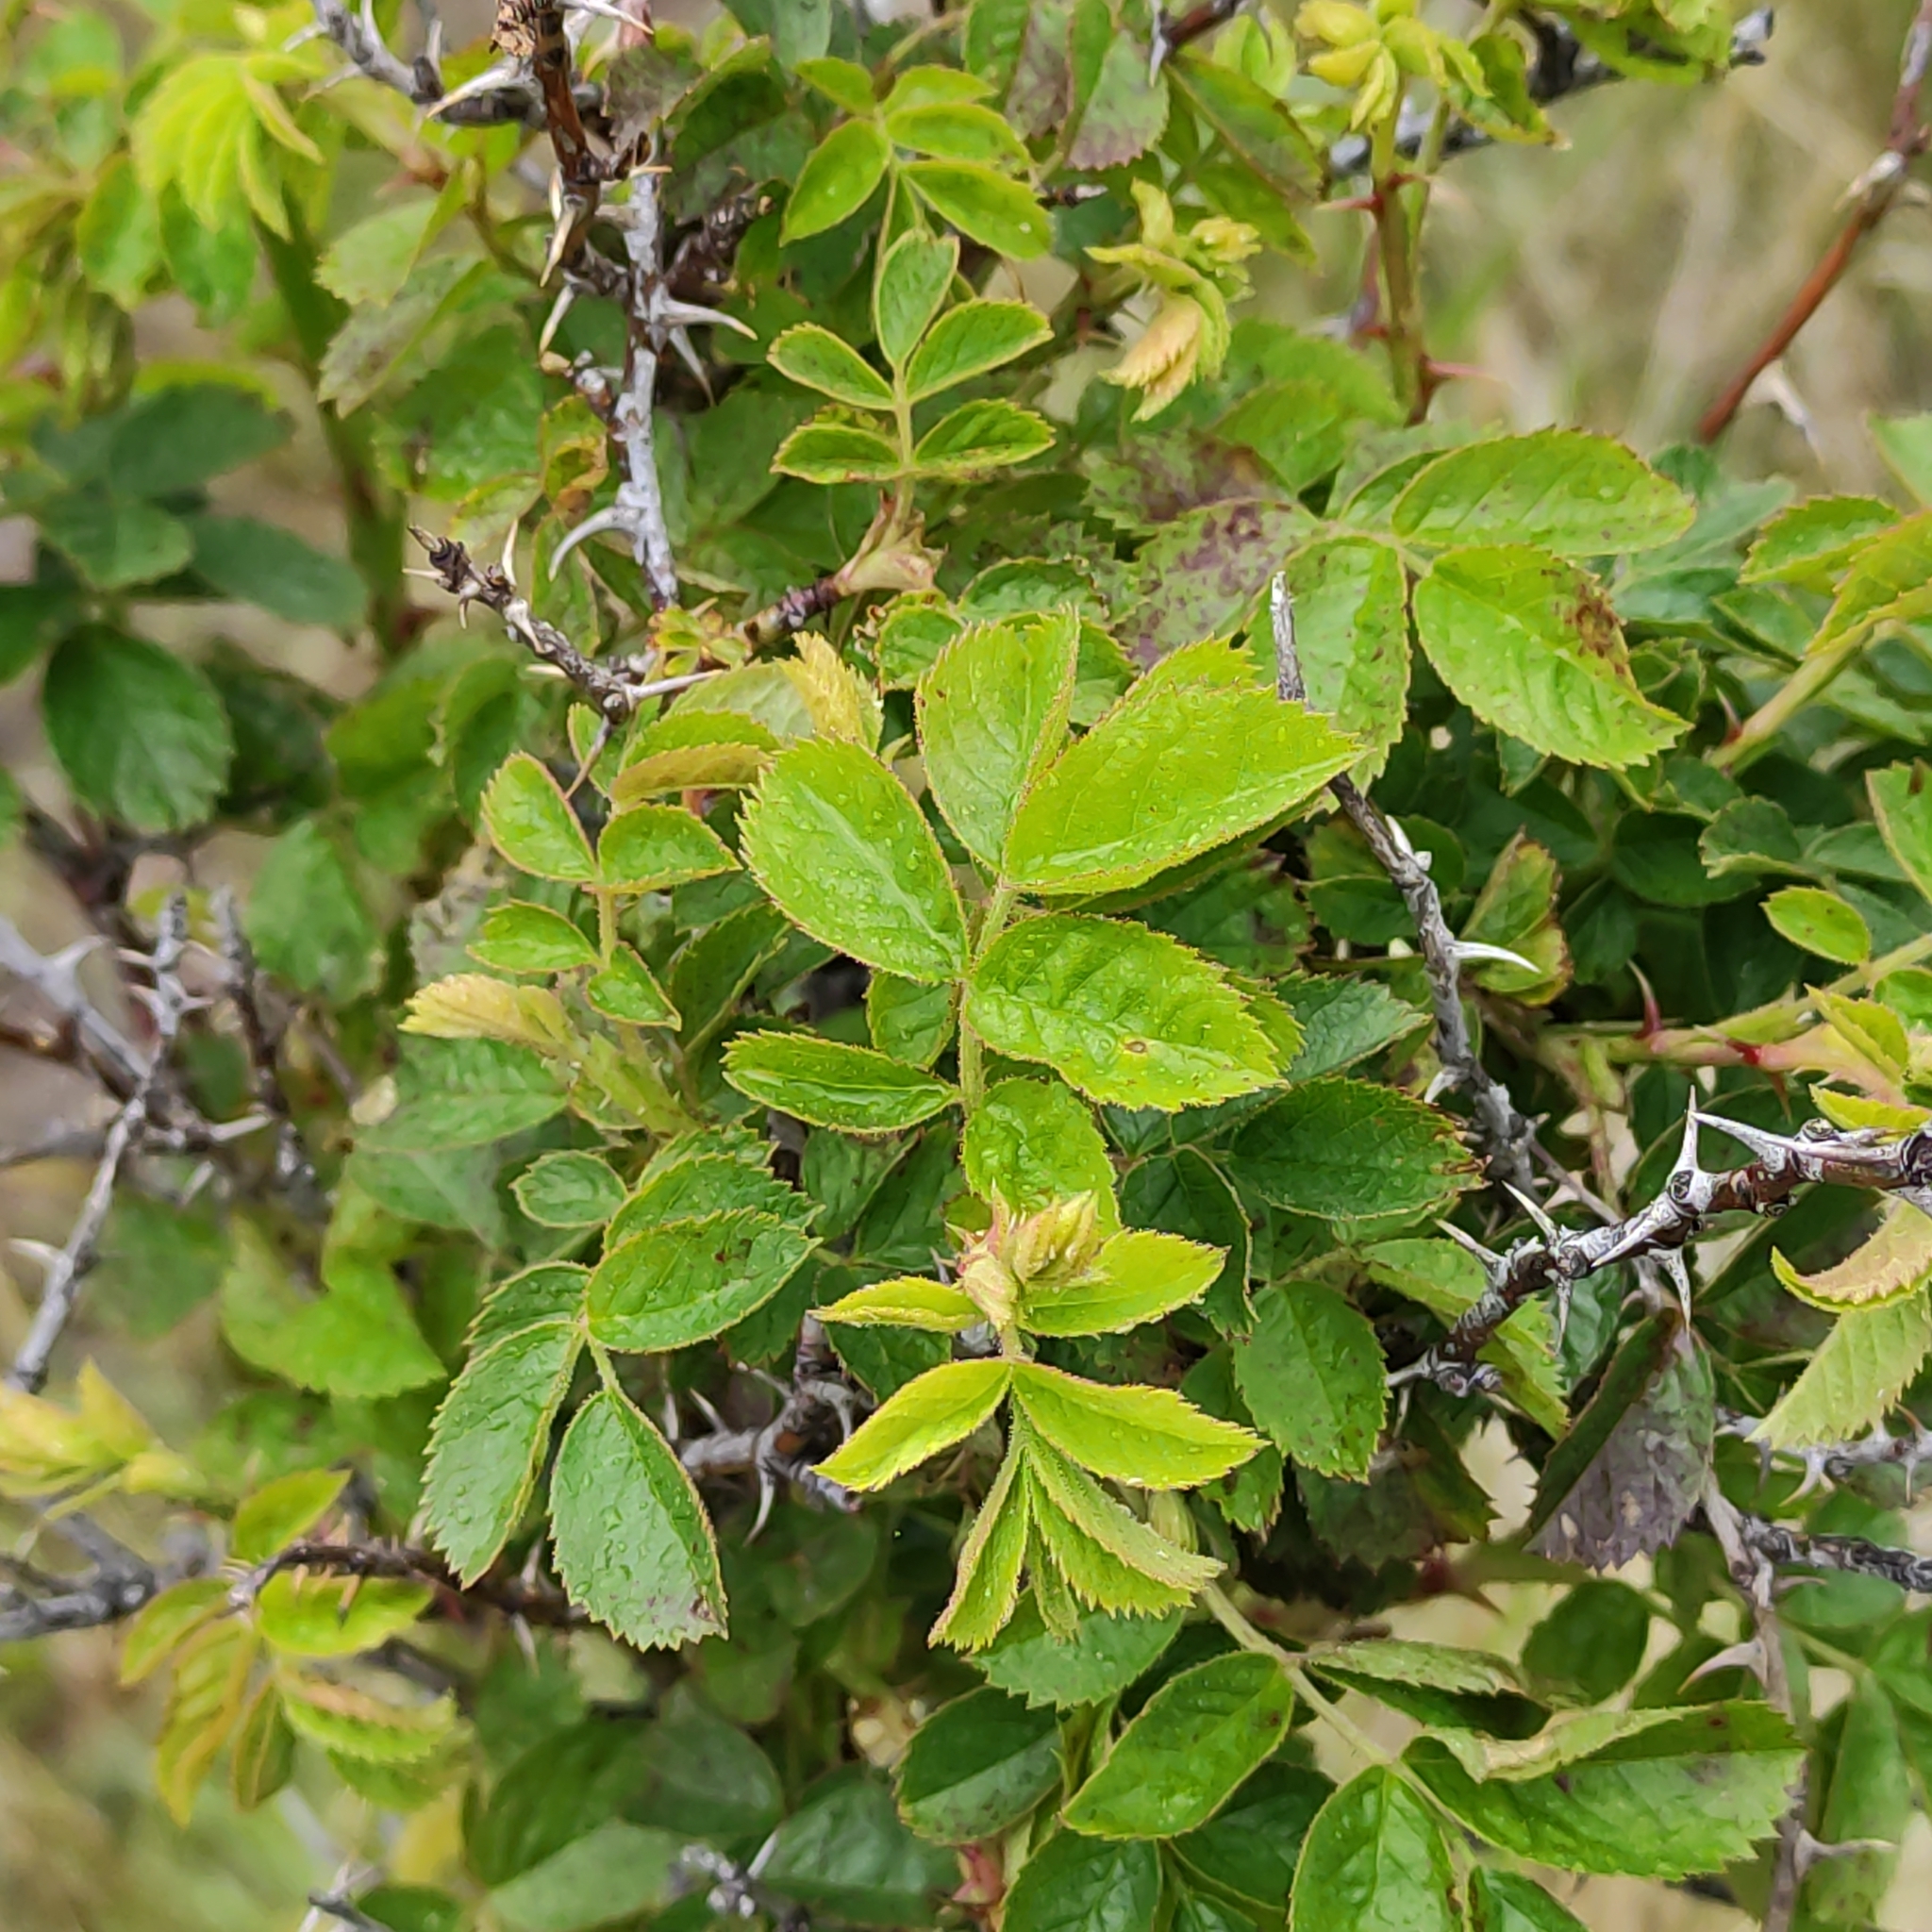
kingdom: Plantae
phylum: Tracheophyta
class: Magnoliopsida
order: Rosales
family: Rosaceae
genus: Rosa
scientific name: Rosa rubiginosa
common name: Sweet-briar
